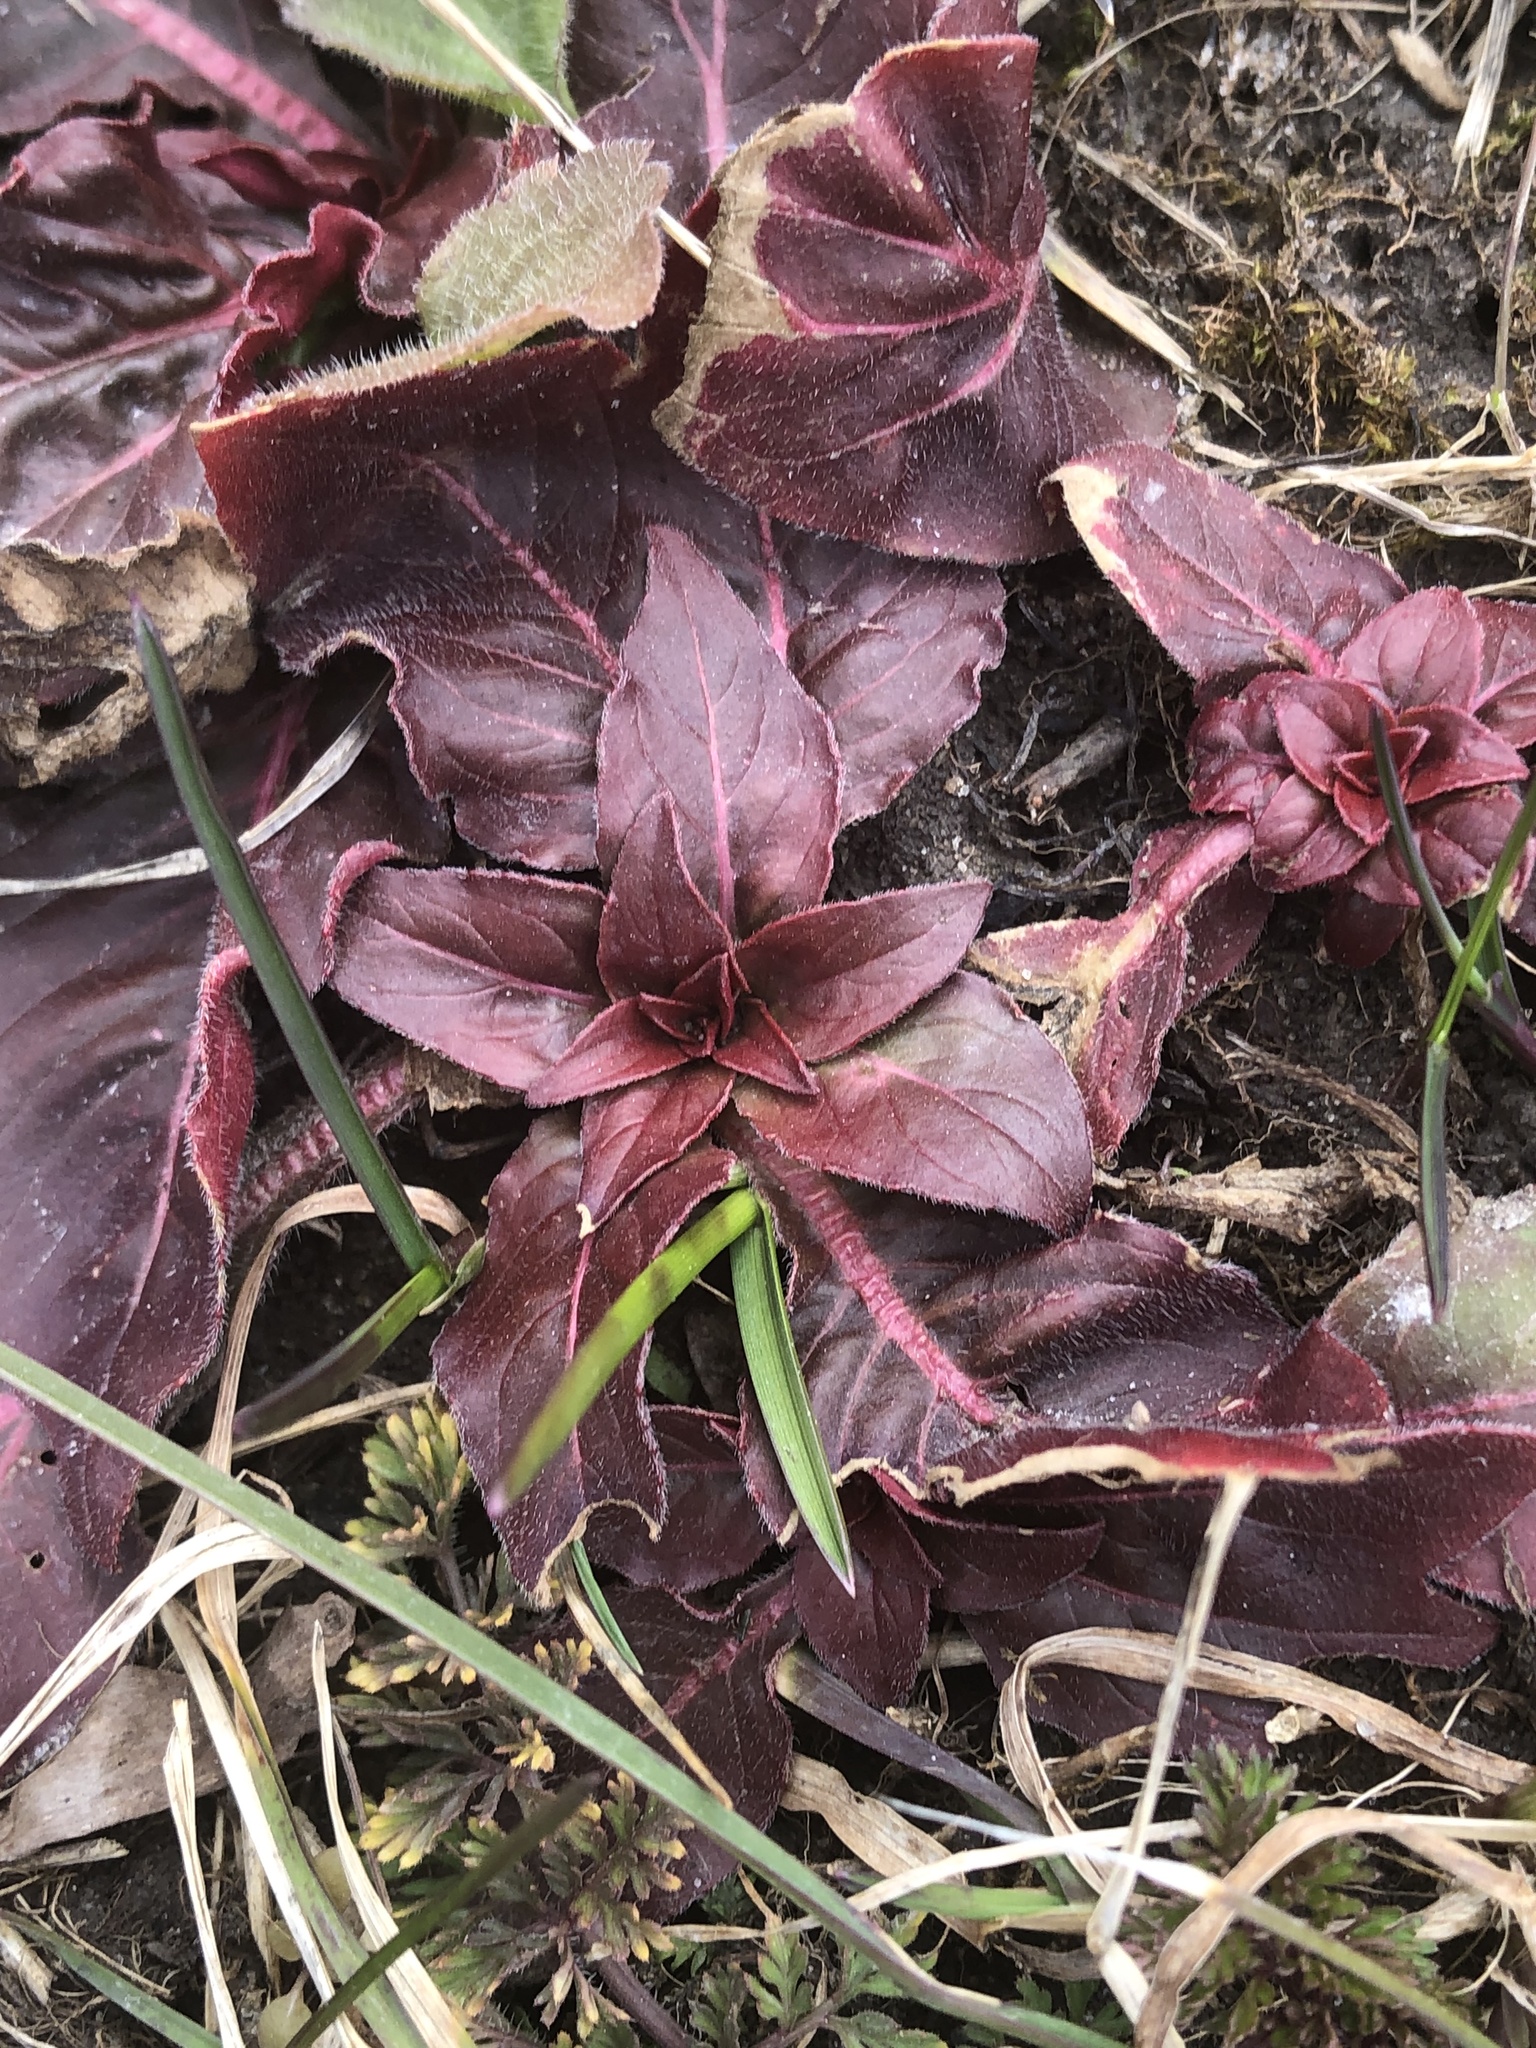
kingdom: Plantae
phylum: Tracheophyta
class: Magnoliopsida
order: Myrtales
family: Onagraceae
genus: Oenothera
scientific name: Oenothera
